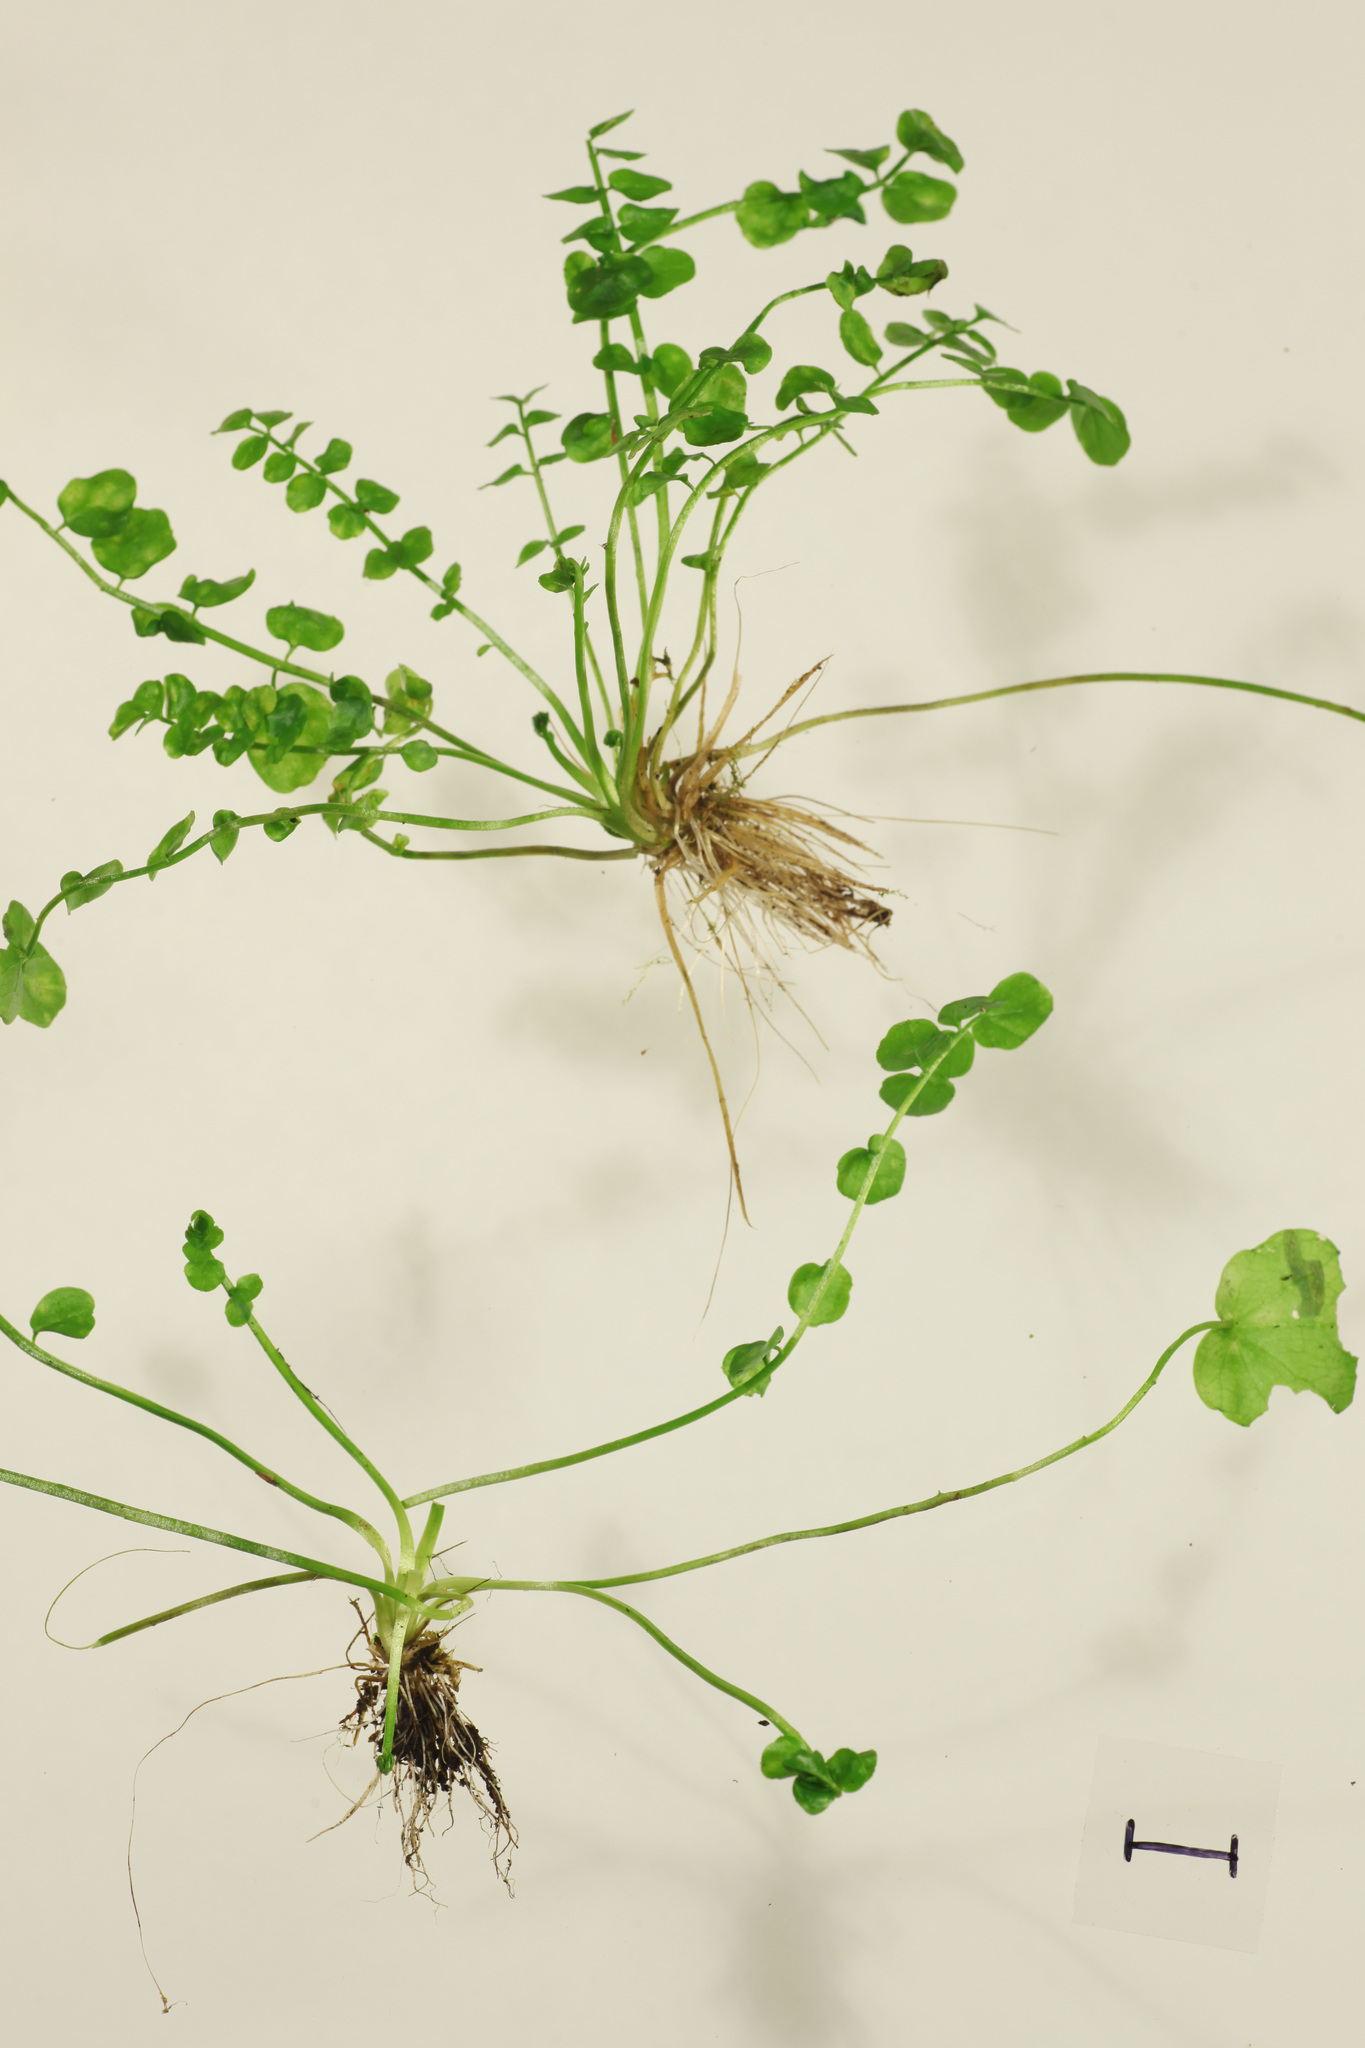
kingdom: Plantae
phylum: Tracheophyta
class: Magnoliopsida
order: Brassicales
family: Brassicaceae
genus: Cardamine
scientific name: Cardamine pratensis
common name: Cuckoo flower
